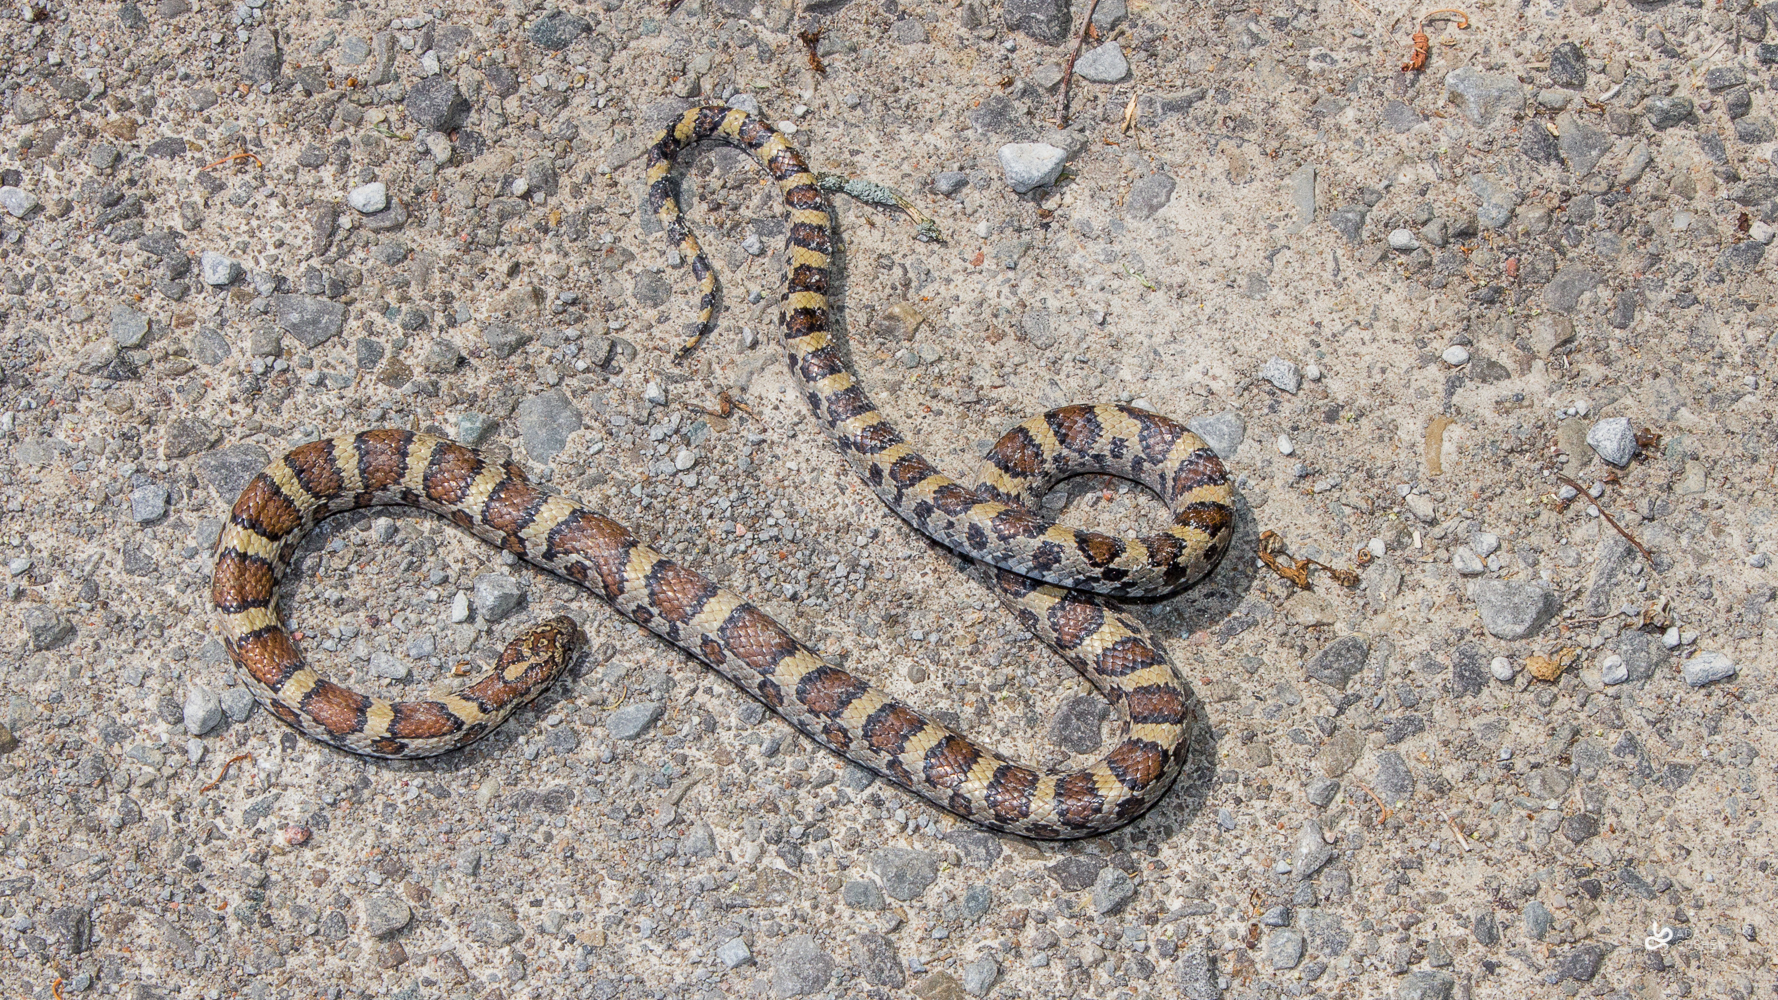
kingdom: Animalia
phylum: Chordata
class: Squamata
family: Colubridae
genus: Lampropeltis
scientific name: Lampropeltis triangulum
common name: Eastern milksnake
